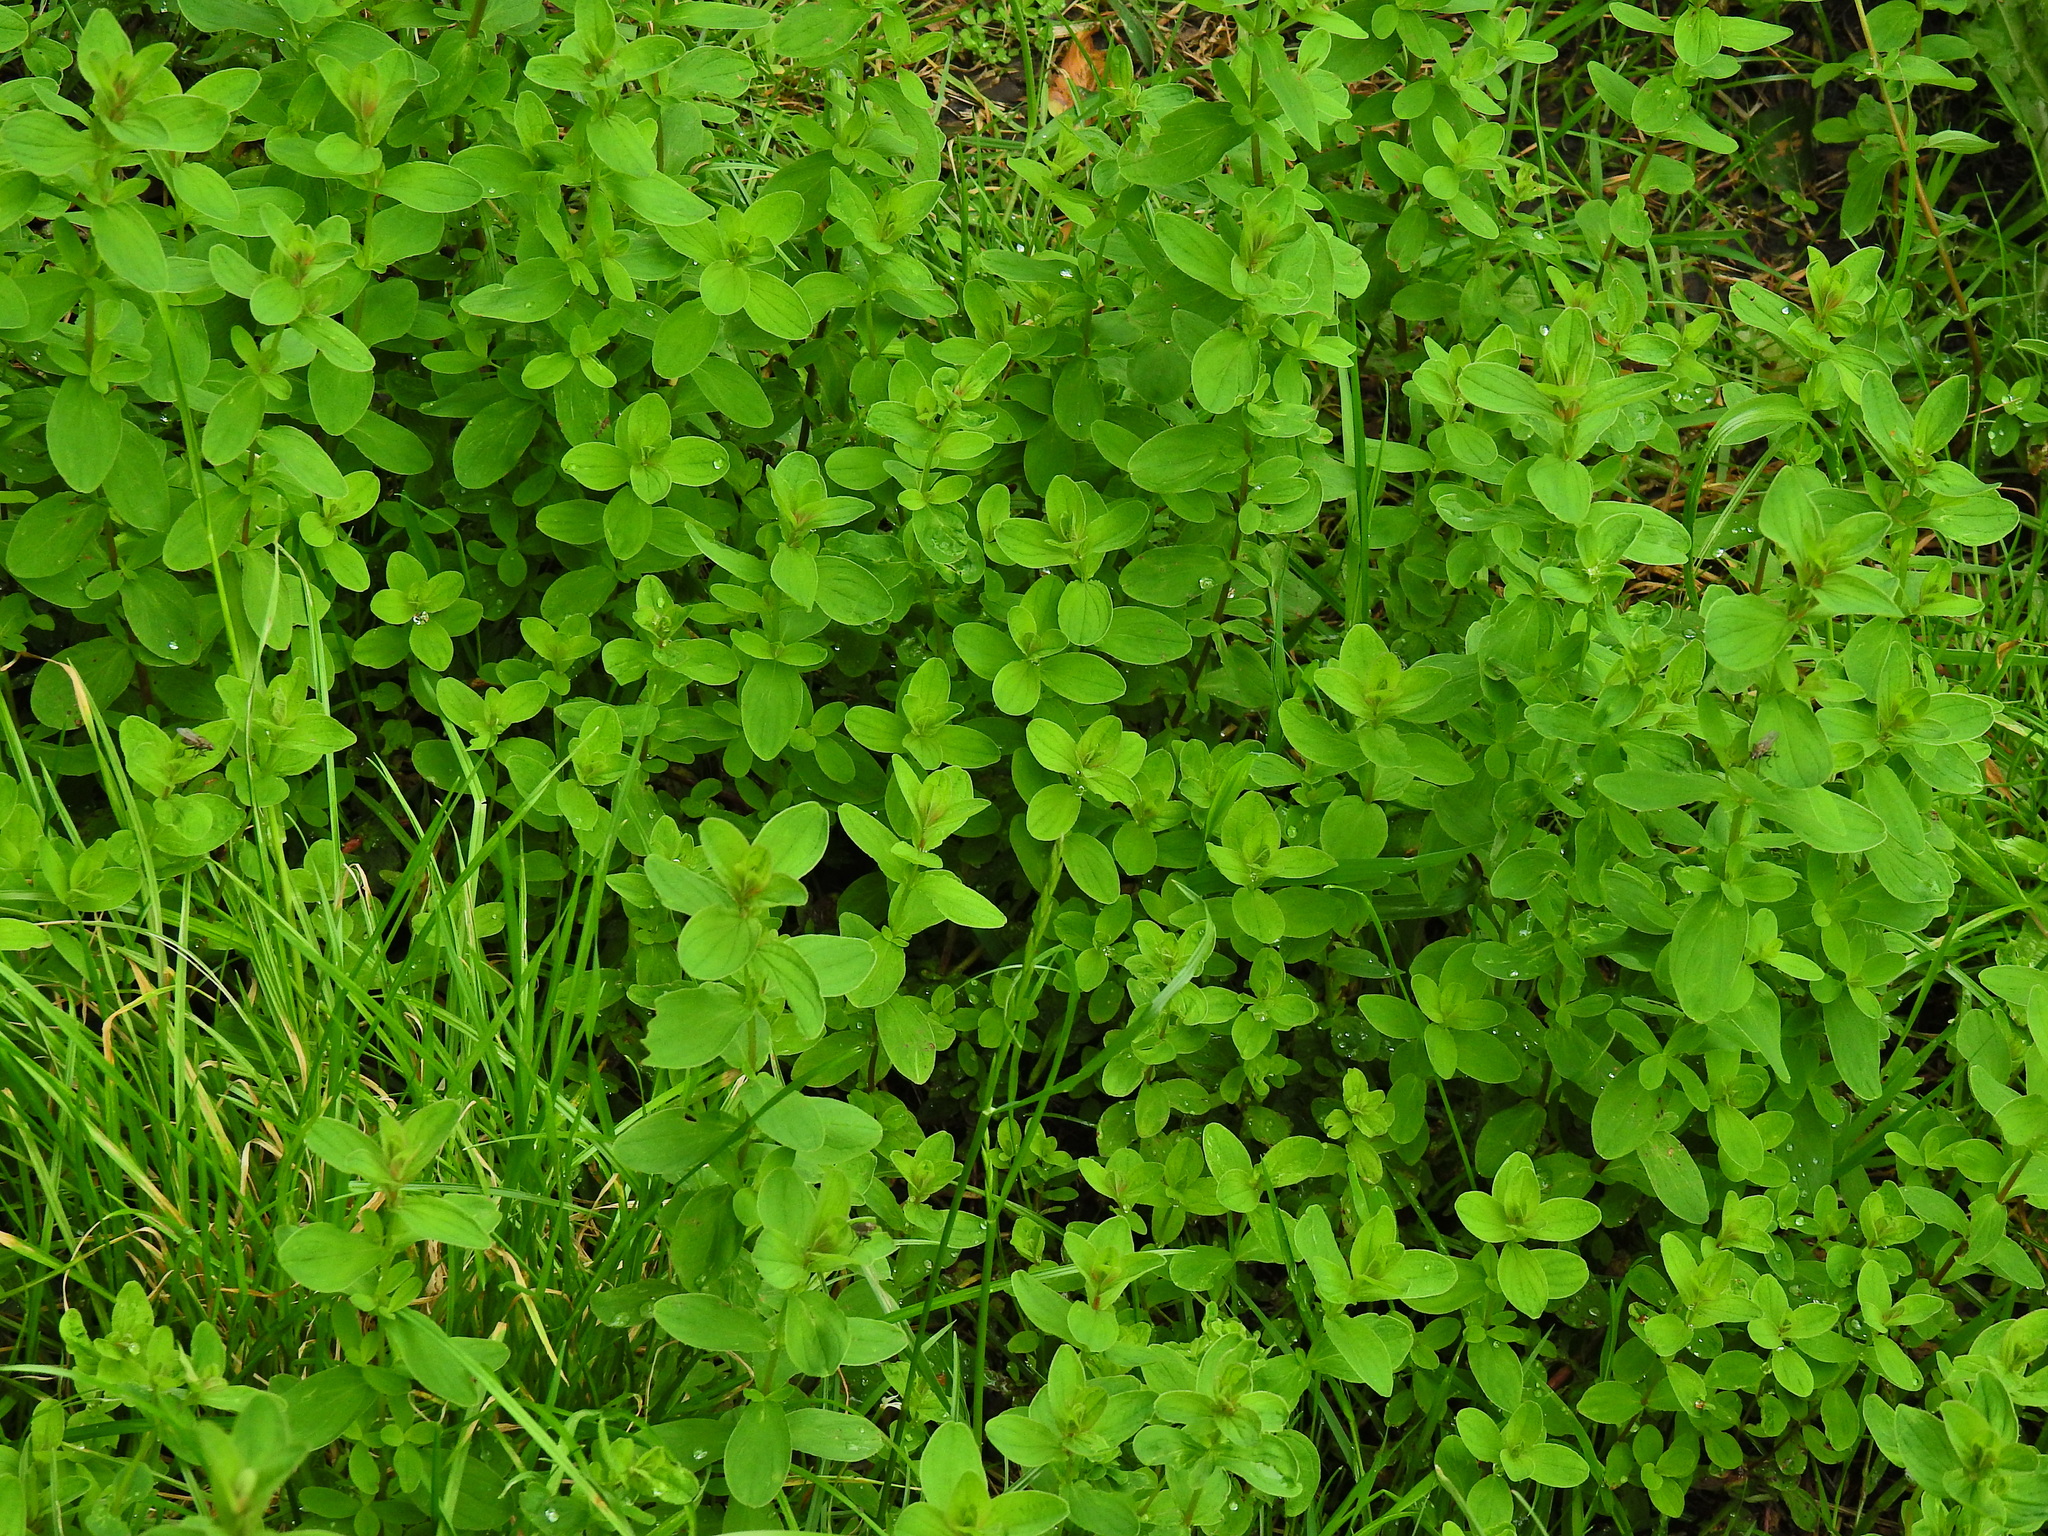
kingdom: Plantae
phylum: Tracheophyta
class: Magnoliopsida
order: Malpighiales
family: Hypericaceae
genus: Hypericum
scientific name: Hypericum maculatum
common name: Imperforate st. john's-wort
